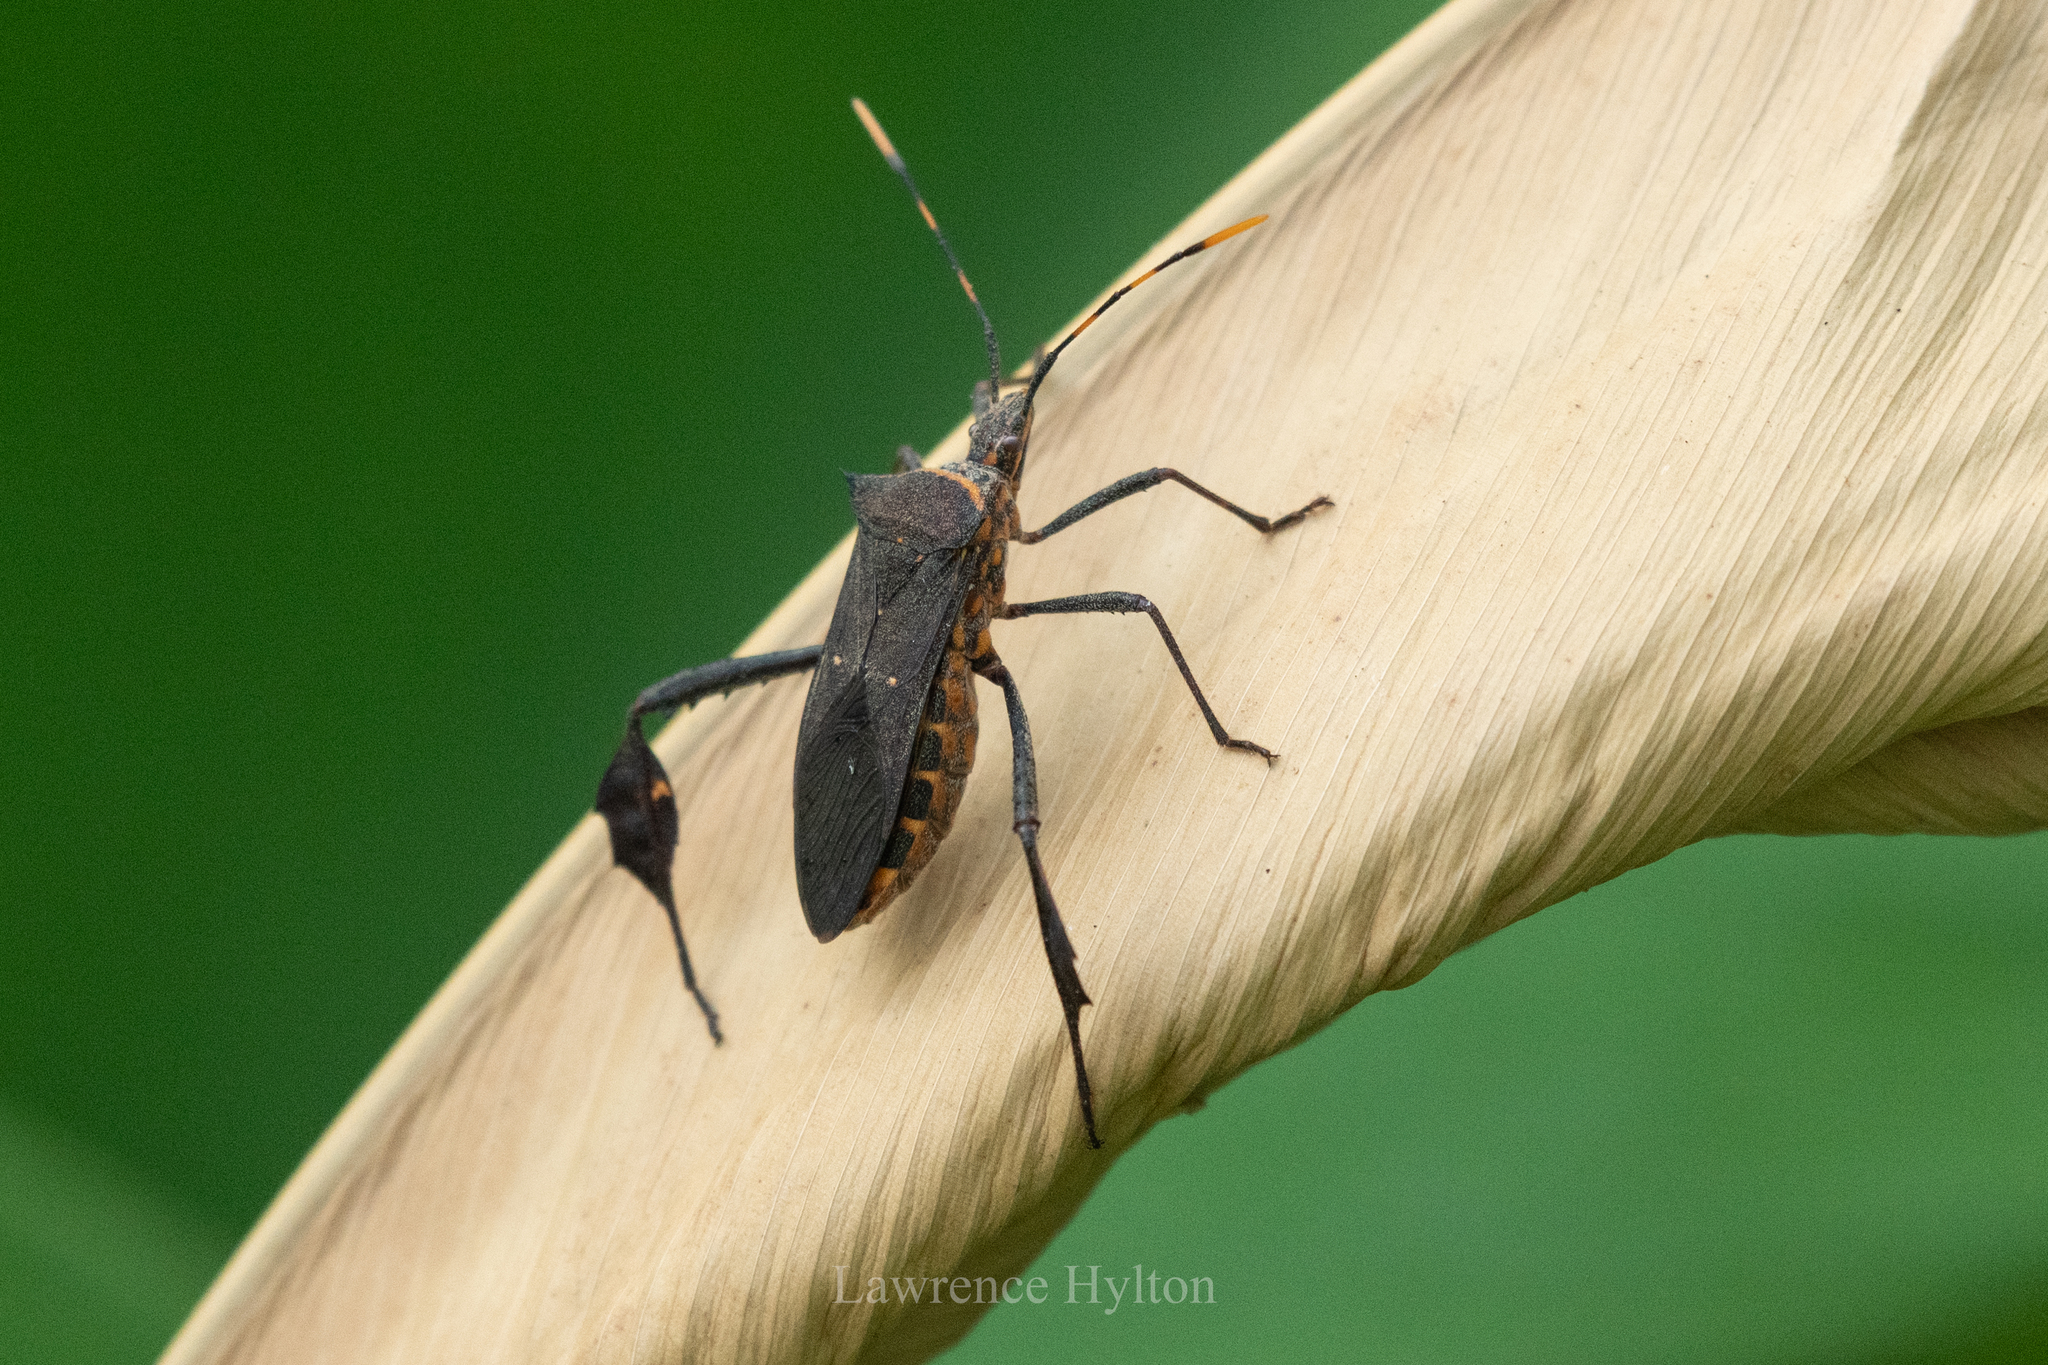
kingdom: Animalia
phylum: Arthropoda
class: Insecta
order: Hemiptera
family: Coreidae
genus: Leptoglossus
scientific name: Leptoglossus gonagra
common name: Citron bug
